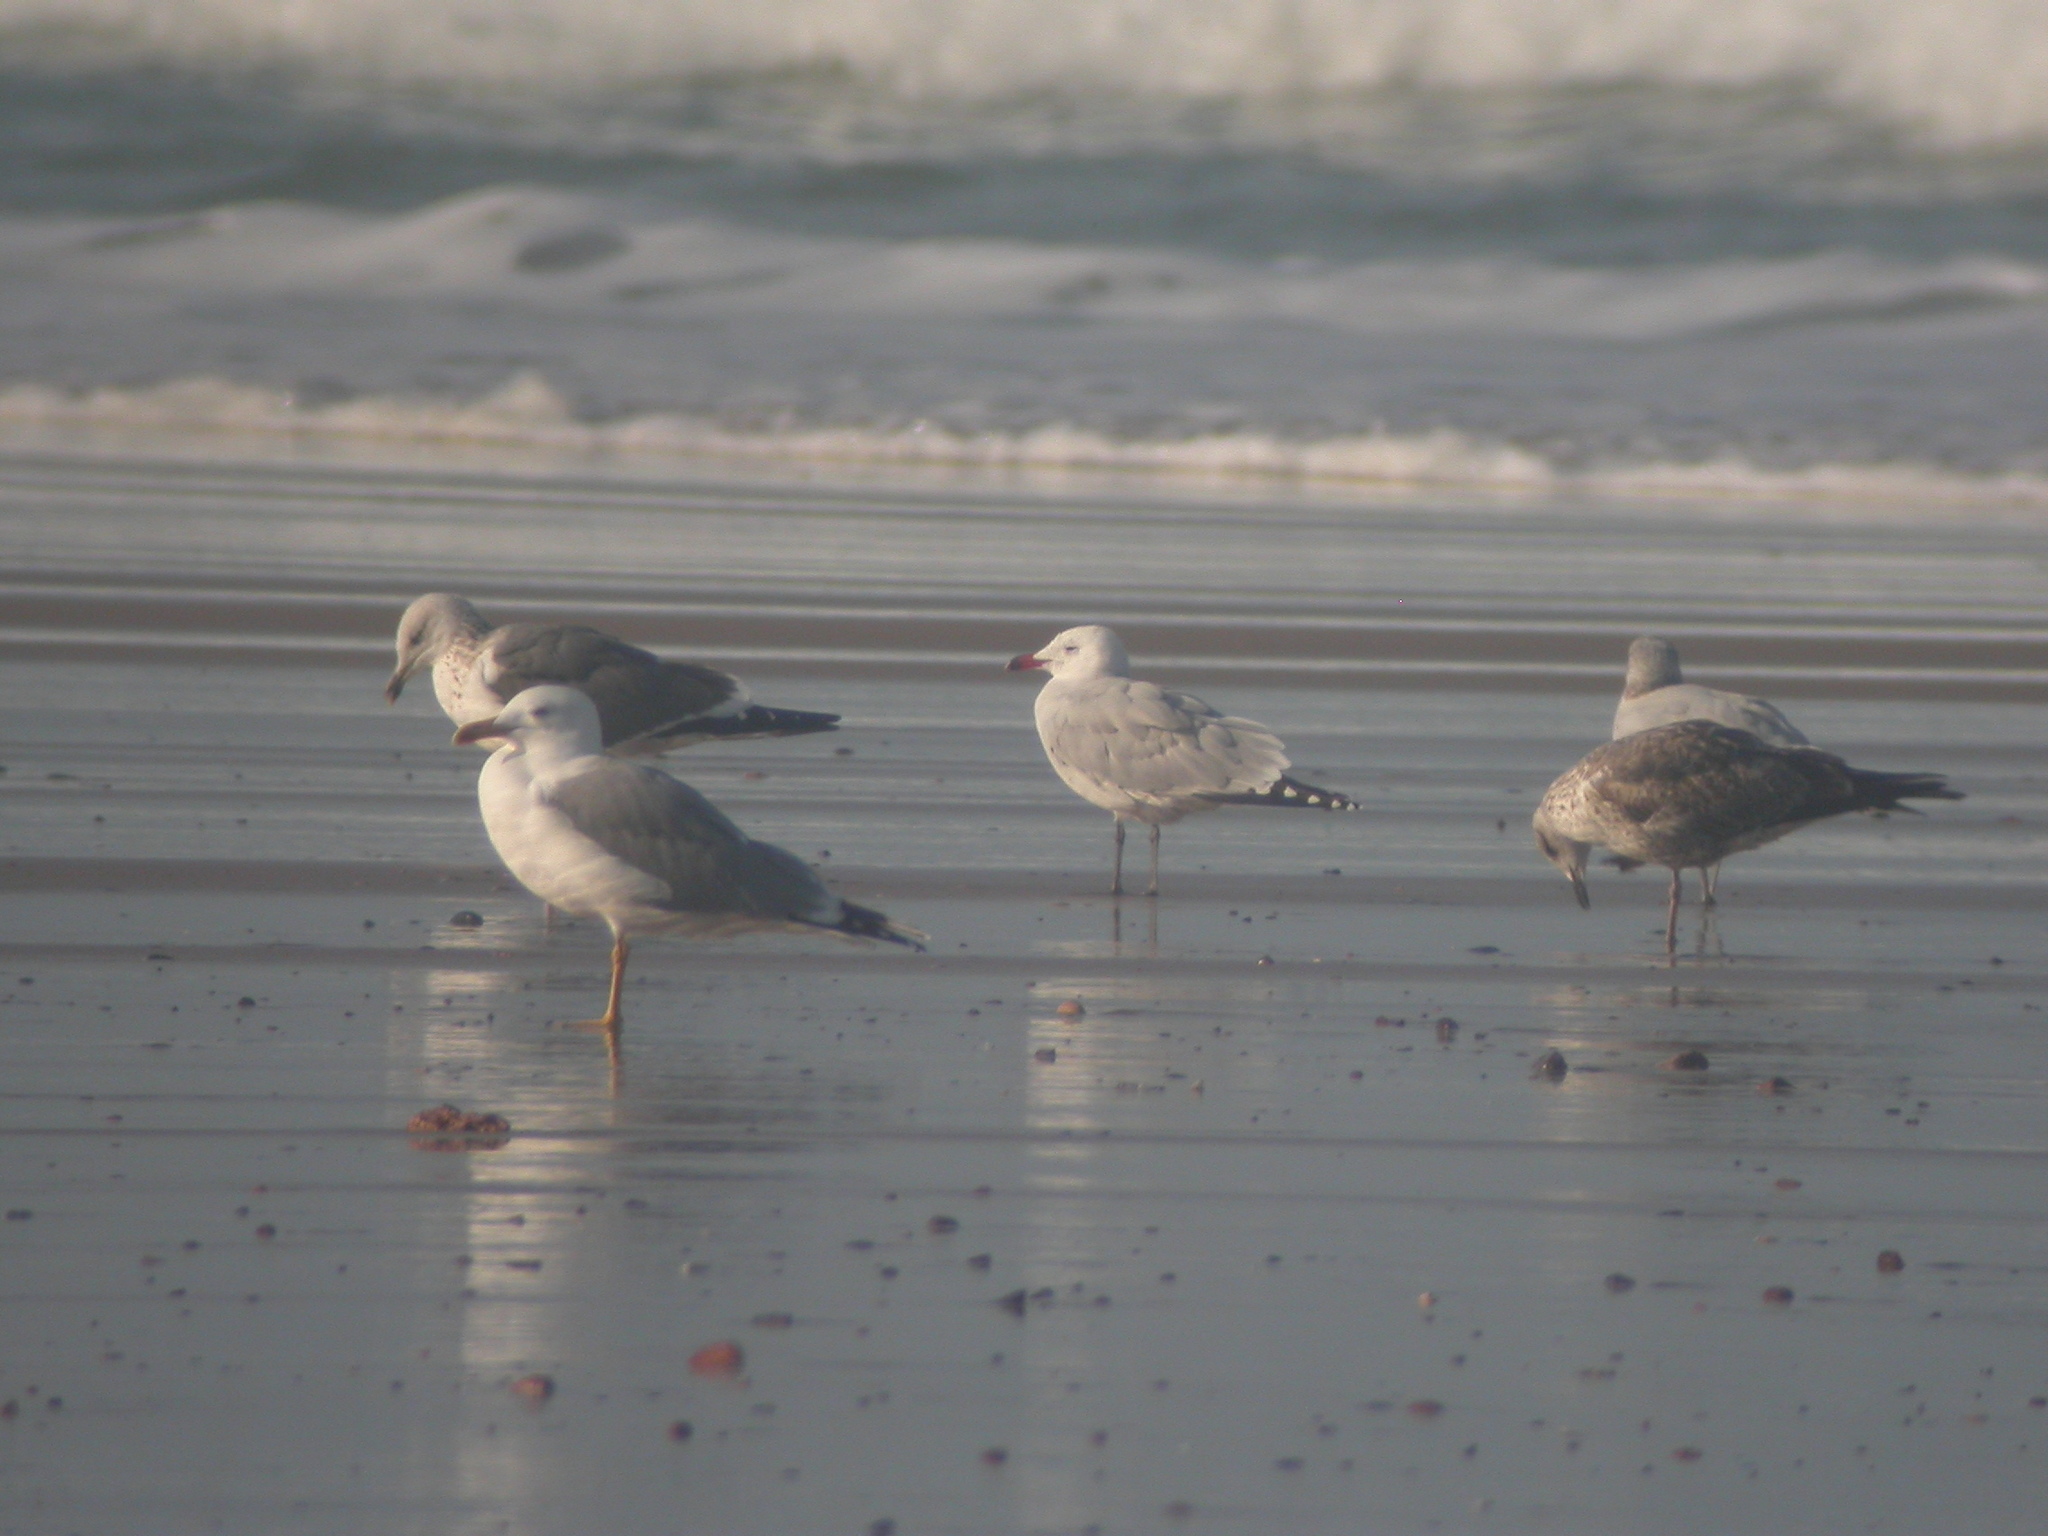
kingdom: Animalia
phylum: Chordata
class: Aves
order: Charadriiformes
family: Laridae
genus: Ichthyaetus
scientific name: Ichthyaetus audouinii
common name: Audouin's gull
